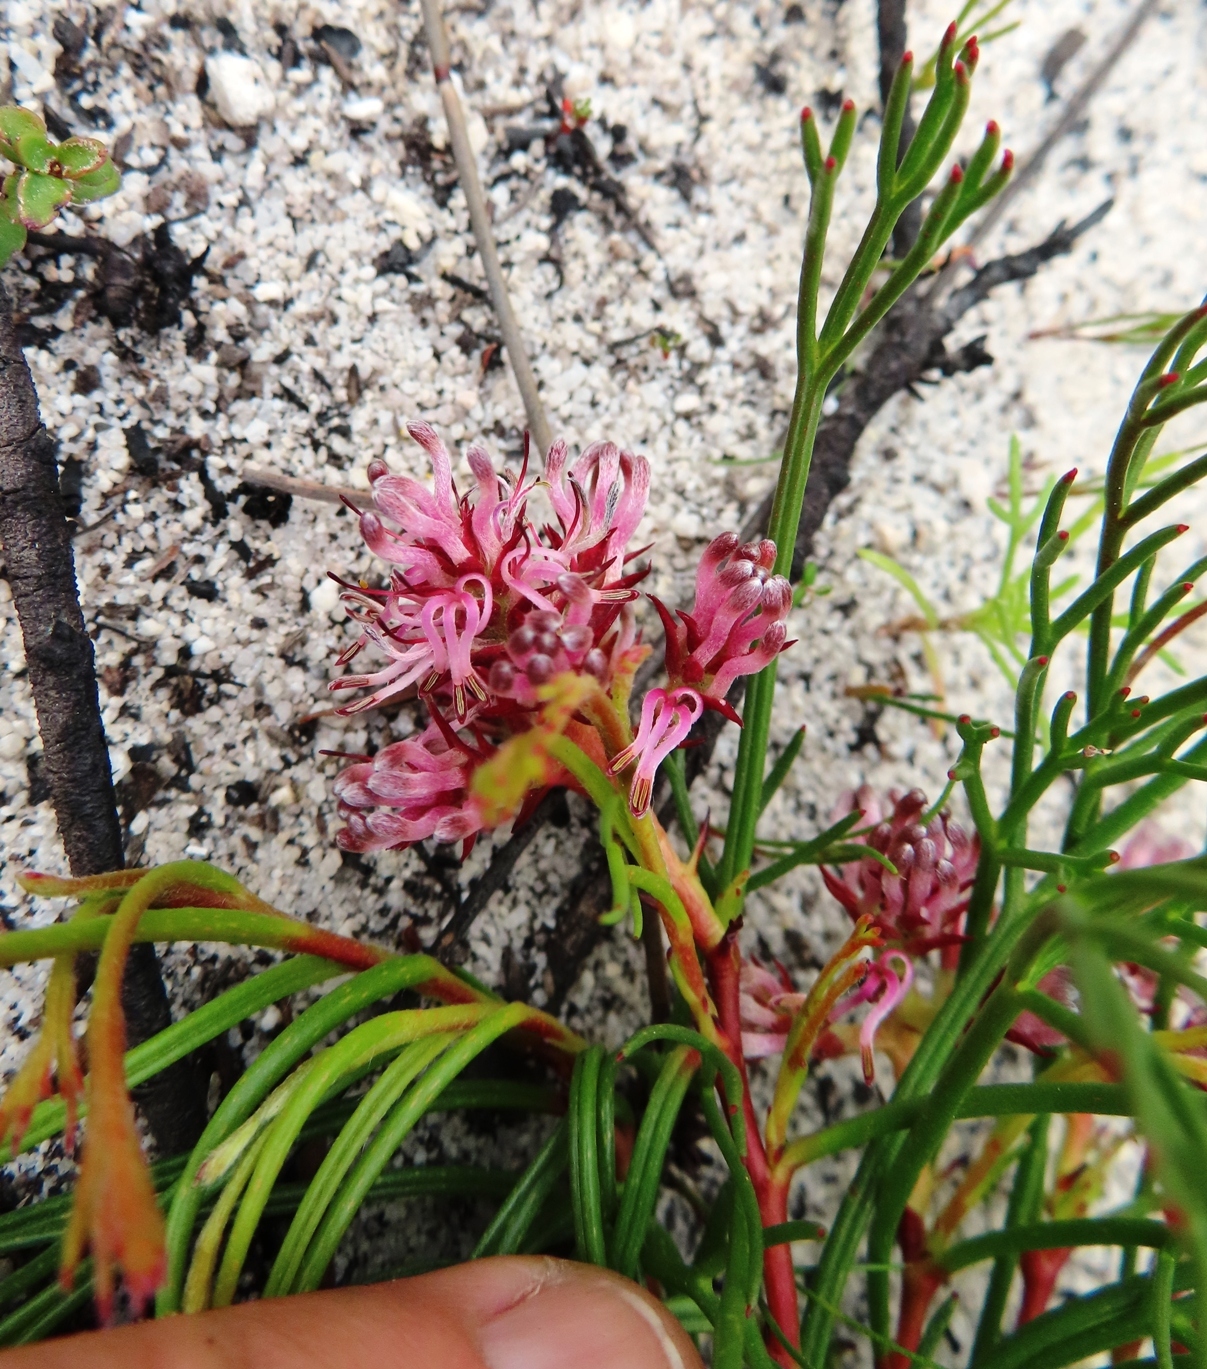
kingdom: Plantae
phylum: Tracheophyta
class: Magnoliopsida
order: Proteales
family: Proteaceae
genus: Serruria
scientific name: Serruria rubricaulis
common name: Red-stem spiderhead
